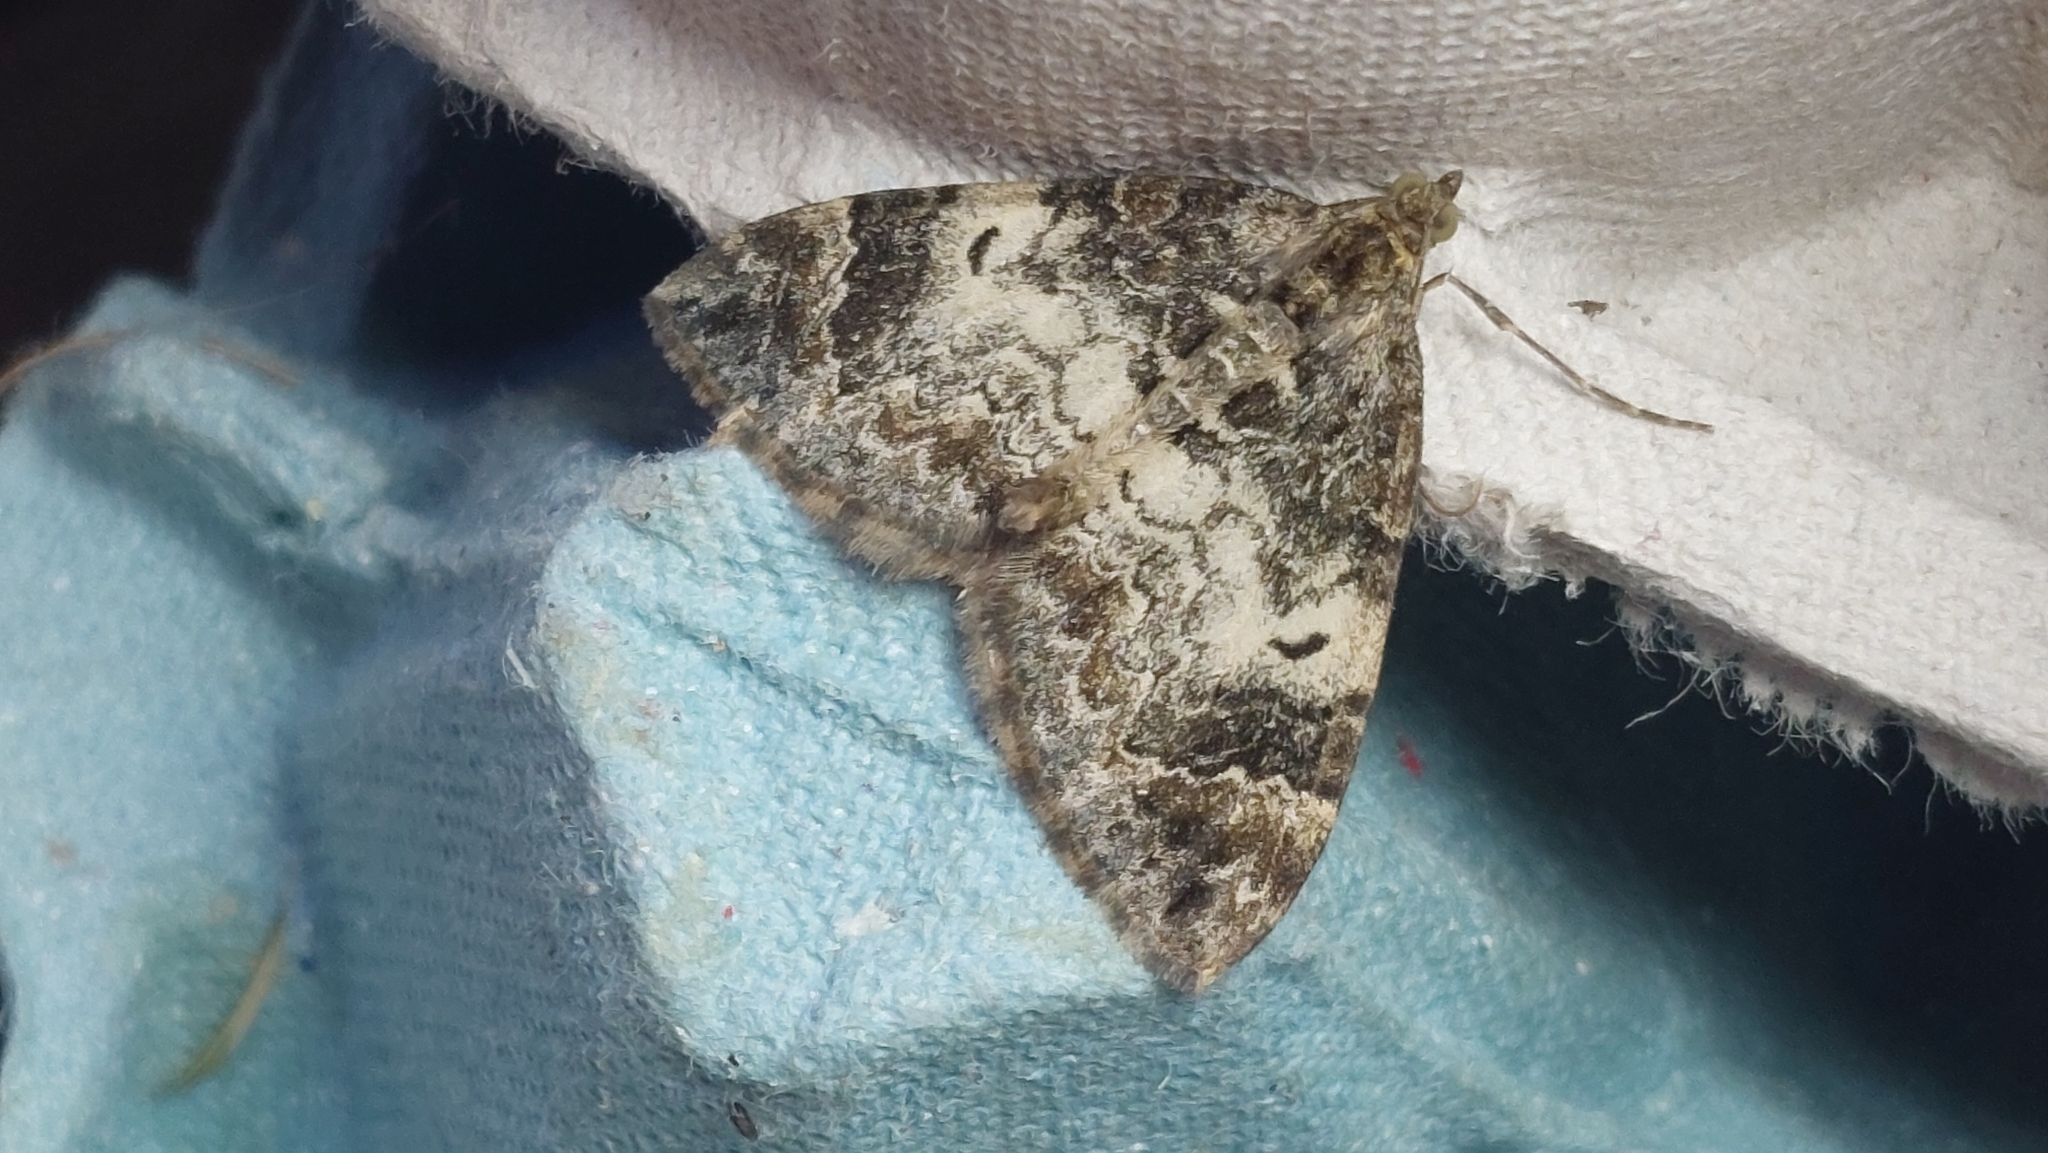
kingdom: Animalia
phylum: Arthropoda
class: Insecta
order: Lepidoptera
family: Geometridae
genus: Dysstroma
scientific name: Dysstroma truncata
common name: Common marbled carpet
